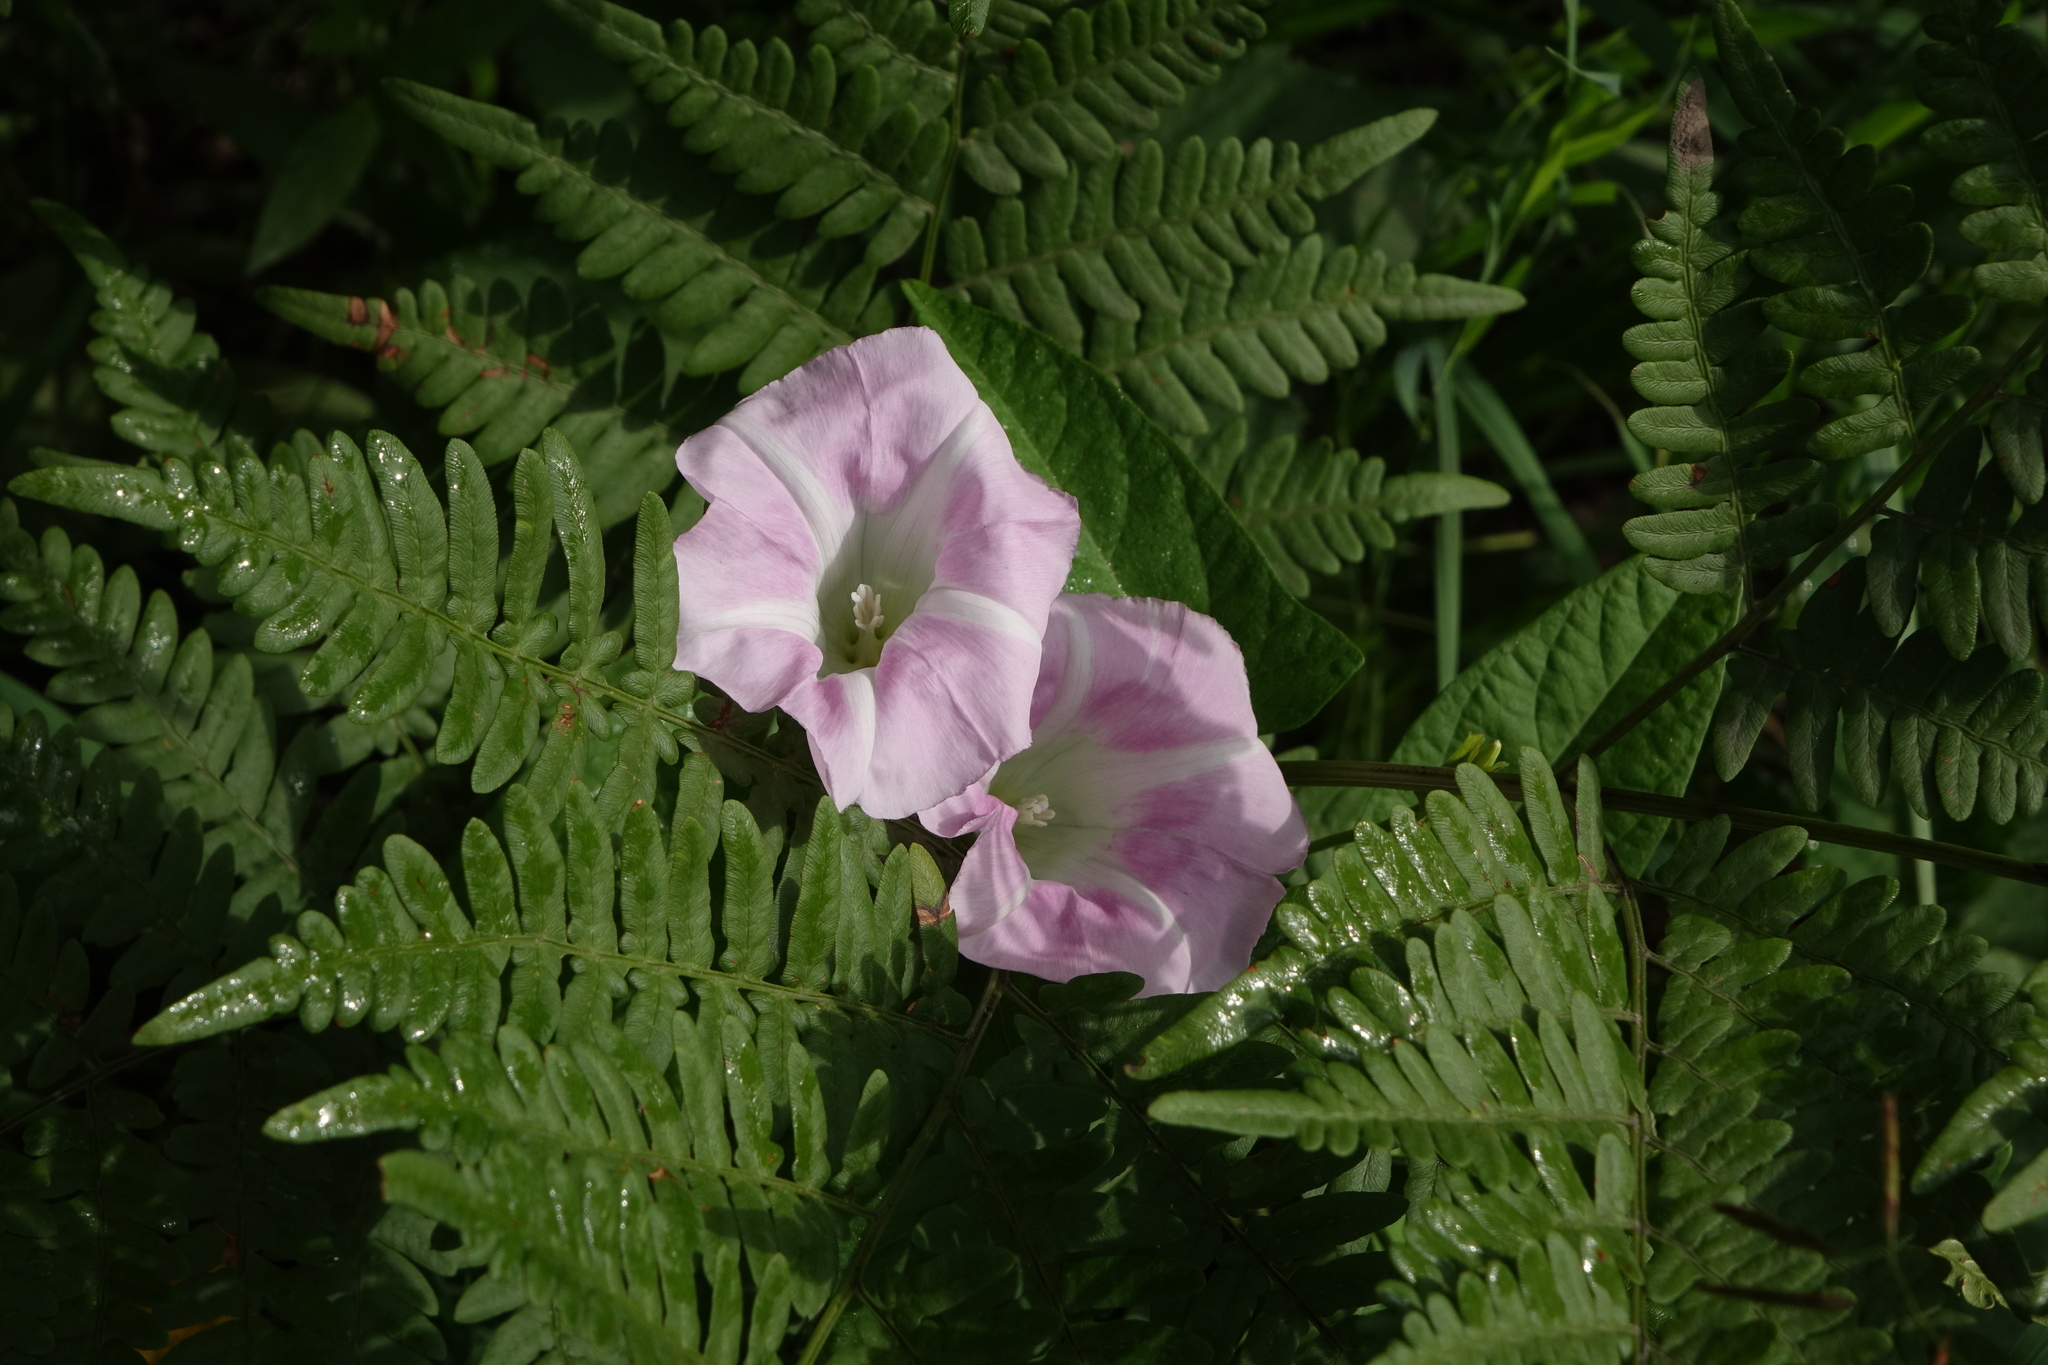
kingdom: Plantae
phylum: Tracheophyta
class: Magnoliopsida
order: Solanales
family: Convolvulaceae
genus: Calystegia
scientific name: Calystegia sepium
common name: Hedge bindweed
